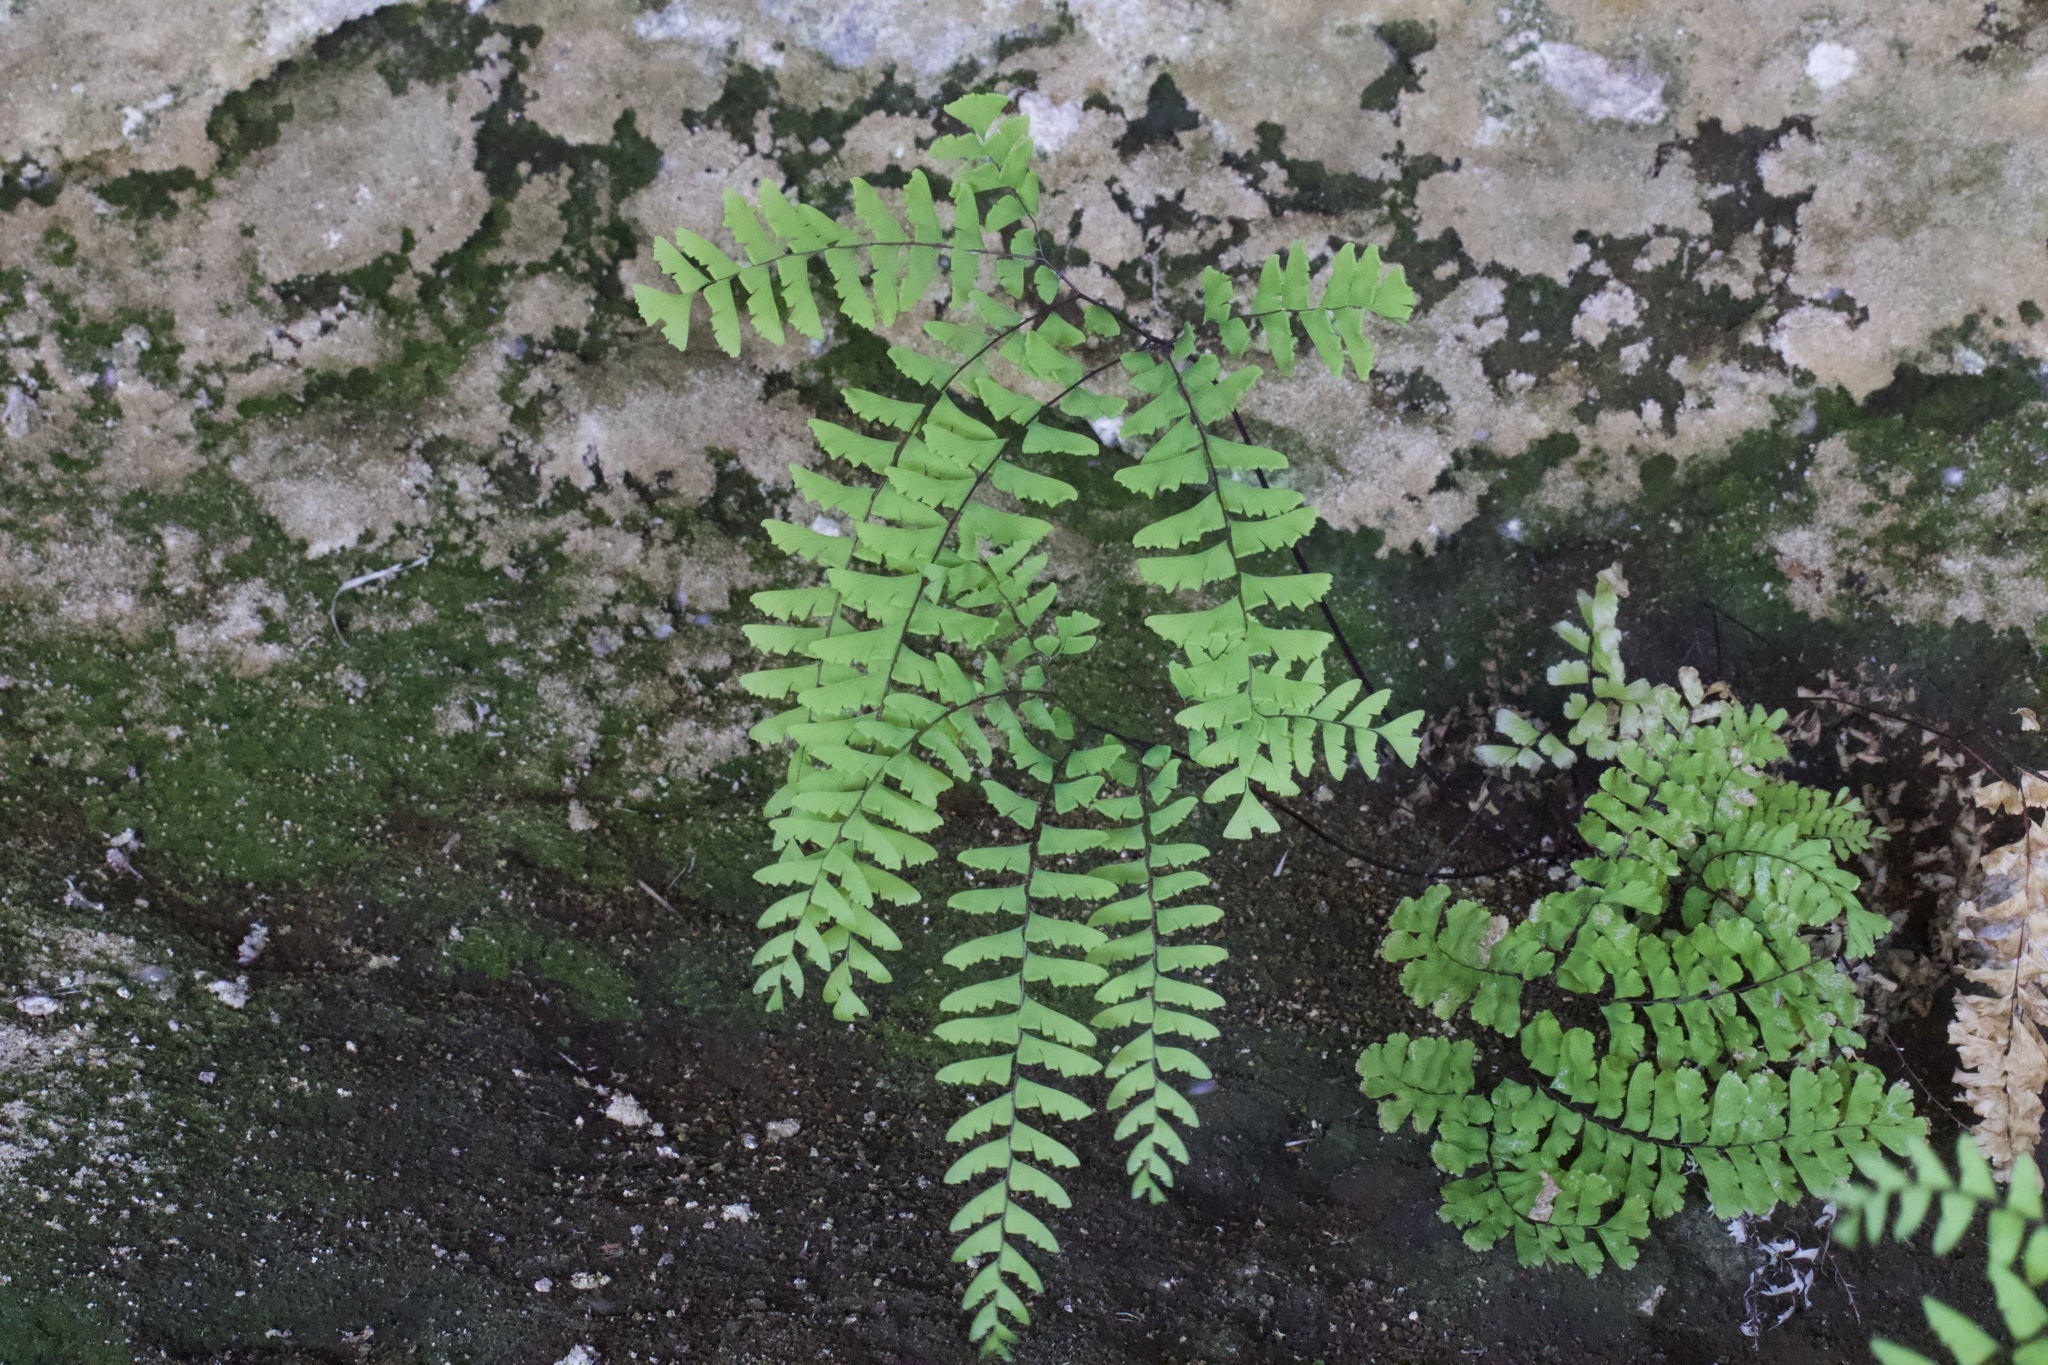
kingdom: Plantae
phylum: Tracheophyta
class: Polypodiopsida
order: Polypodiales
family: Pteridaceae
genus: Adiantum
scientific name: Adiantum aleuticum
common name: Aleutian maidenhair fern
